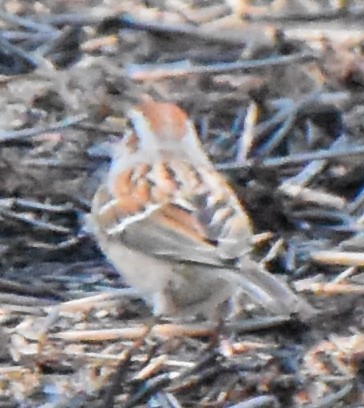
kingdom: Animalia
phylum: Chordata
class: Aves
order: Passeriformes
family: Passerellidae
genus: Spizelloides
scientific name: Spizelloides arborea
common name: American tree sparrow
